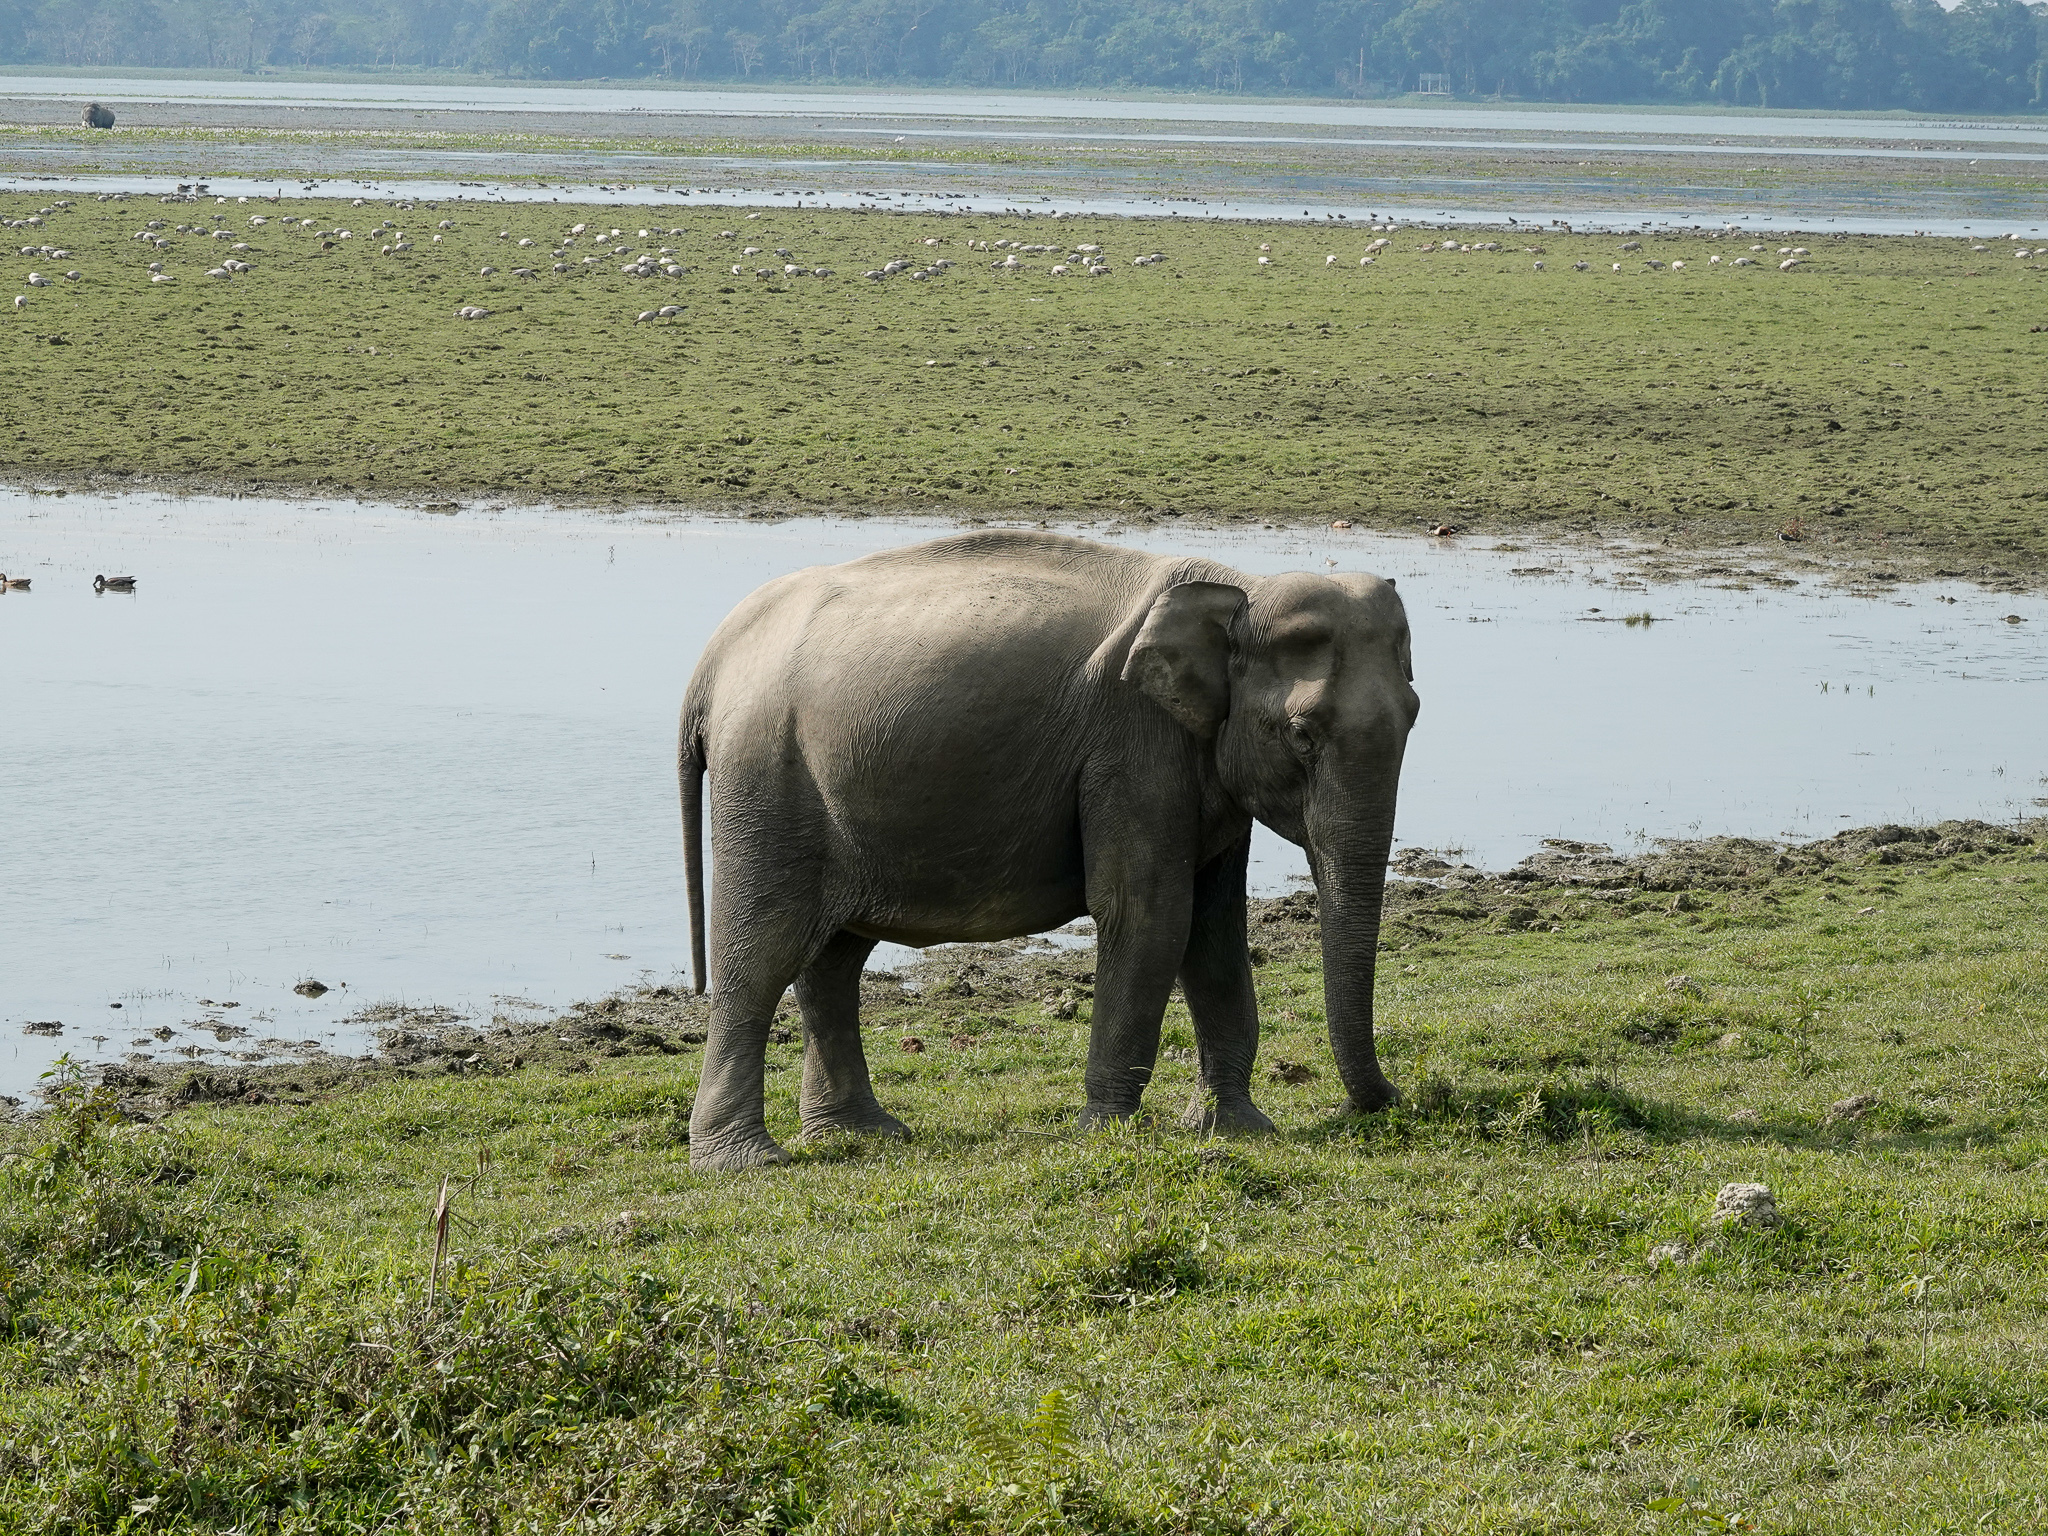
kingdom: Animalia
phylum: Chordata
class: Mammalia
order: Proboscidea
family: Elephantidae
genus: Elephas
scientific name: Elephas maximus
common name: Asian elephant
